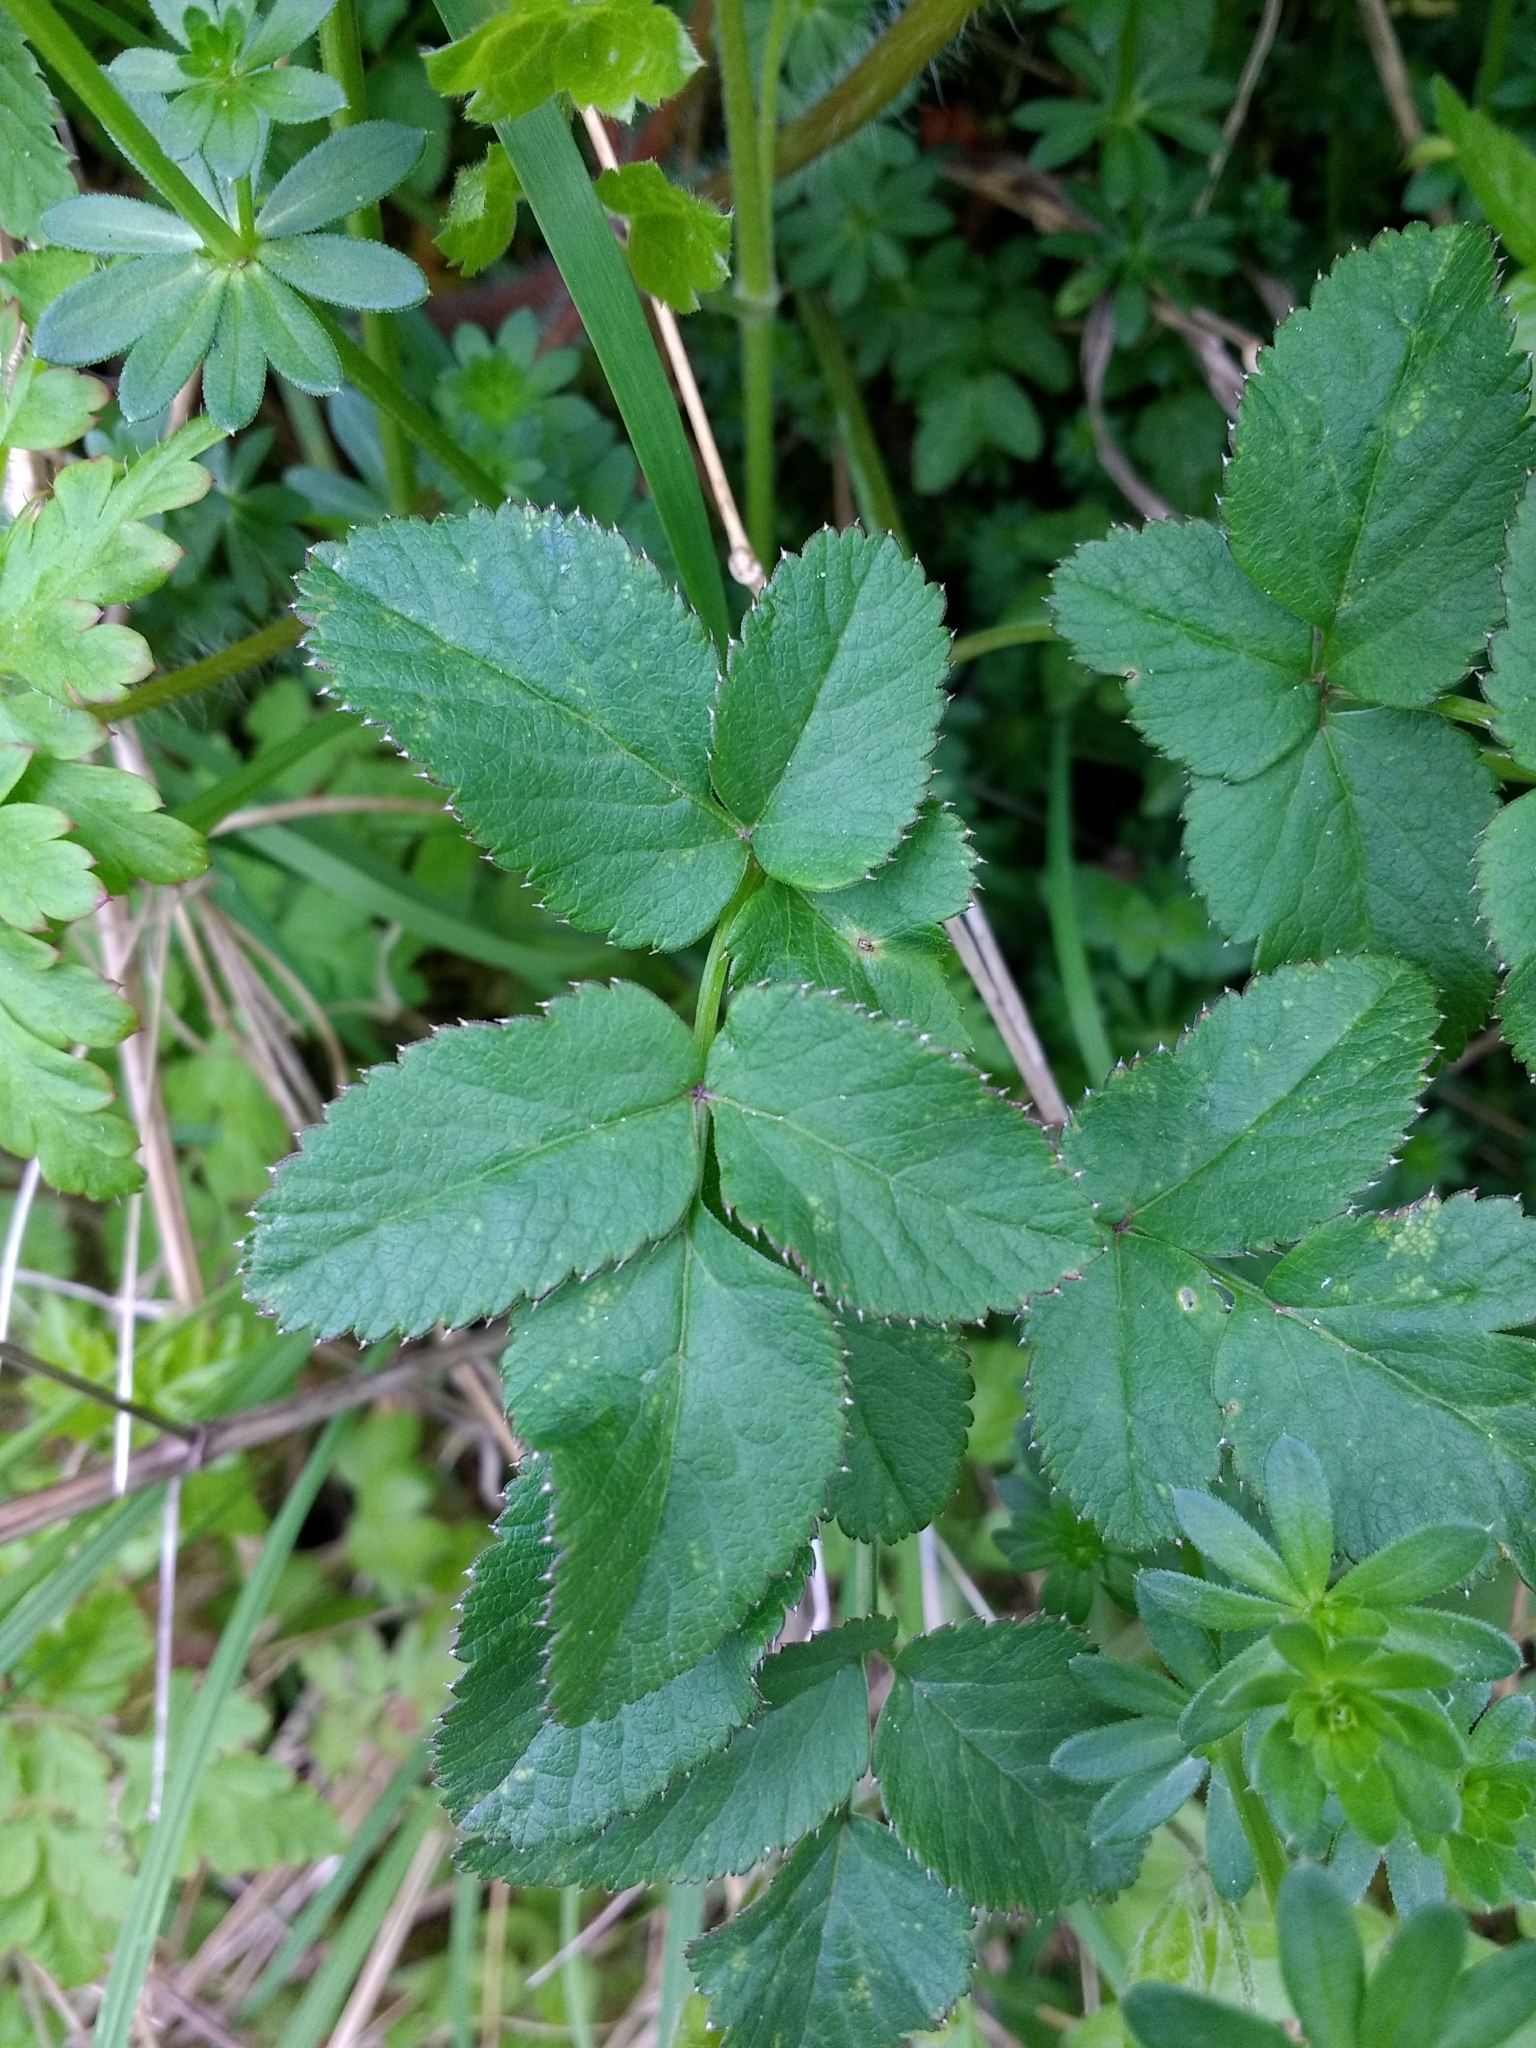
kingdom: Plantae
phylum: Tracheophyta
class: Magnoliopsida
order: Apiales
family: Apiaceae
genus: Aegopodium
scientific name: Aegopodium podagraria
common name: Ground-elder
